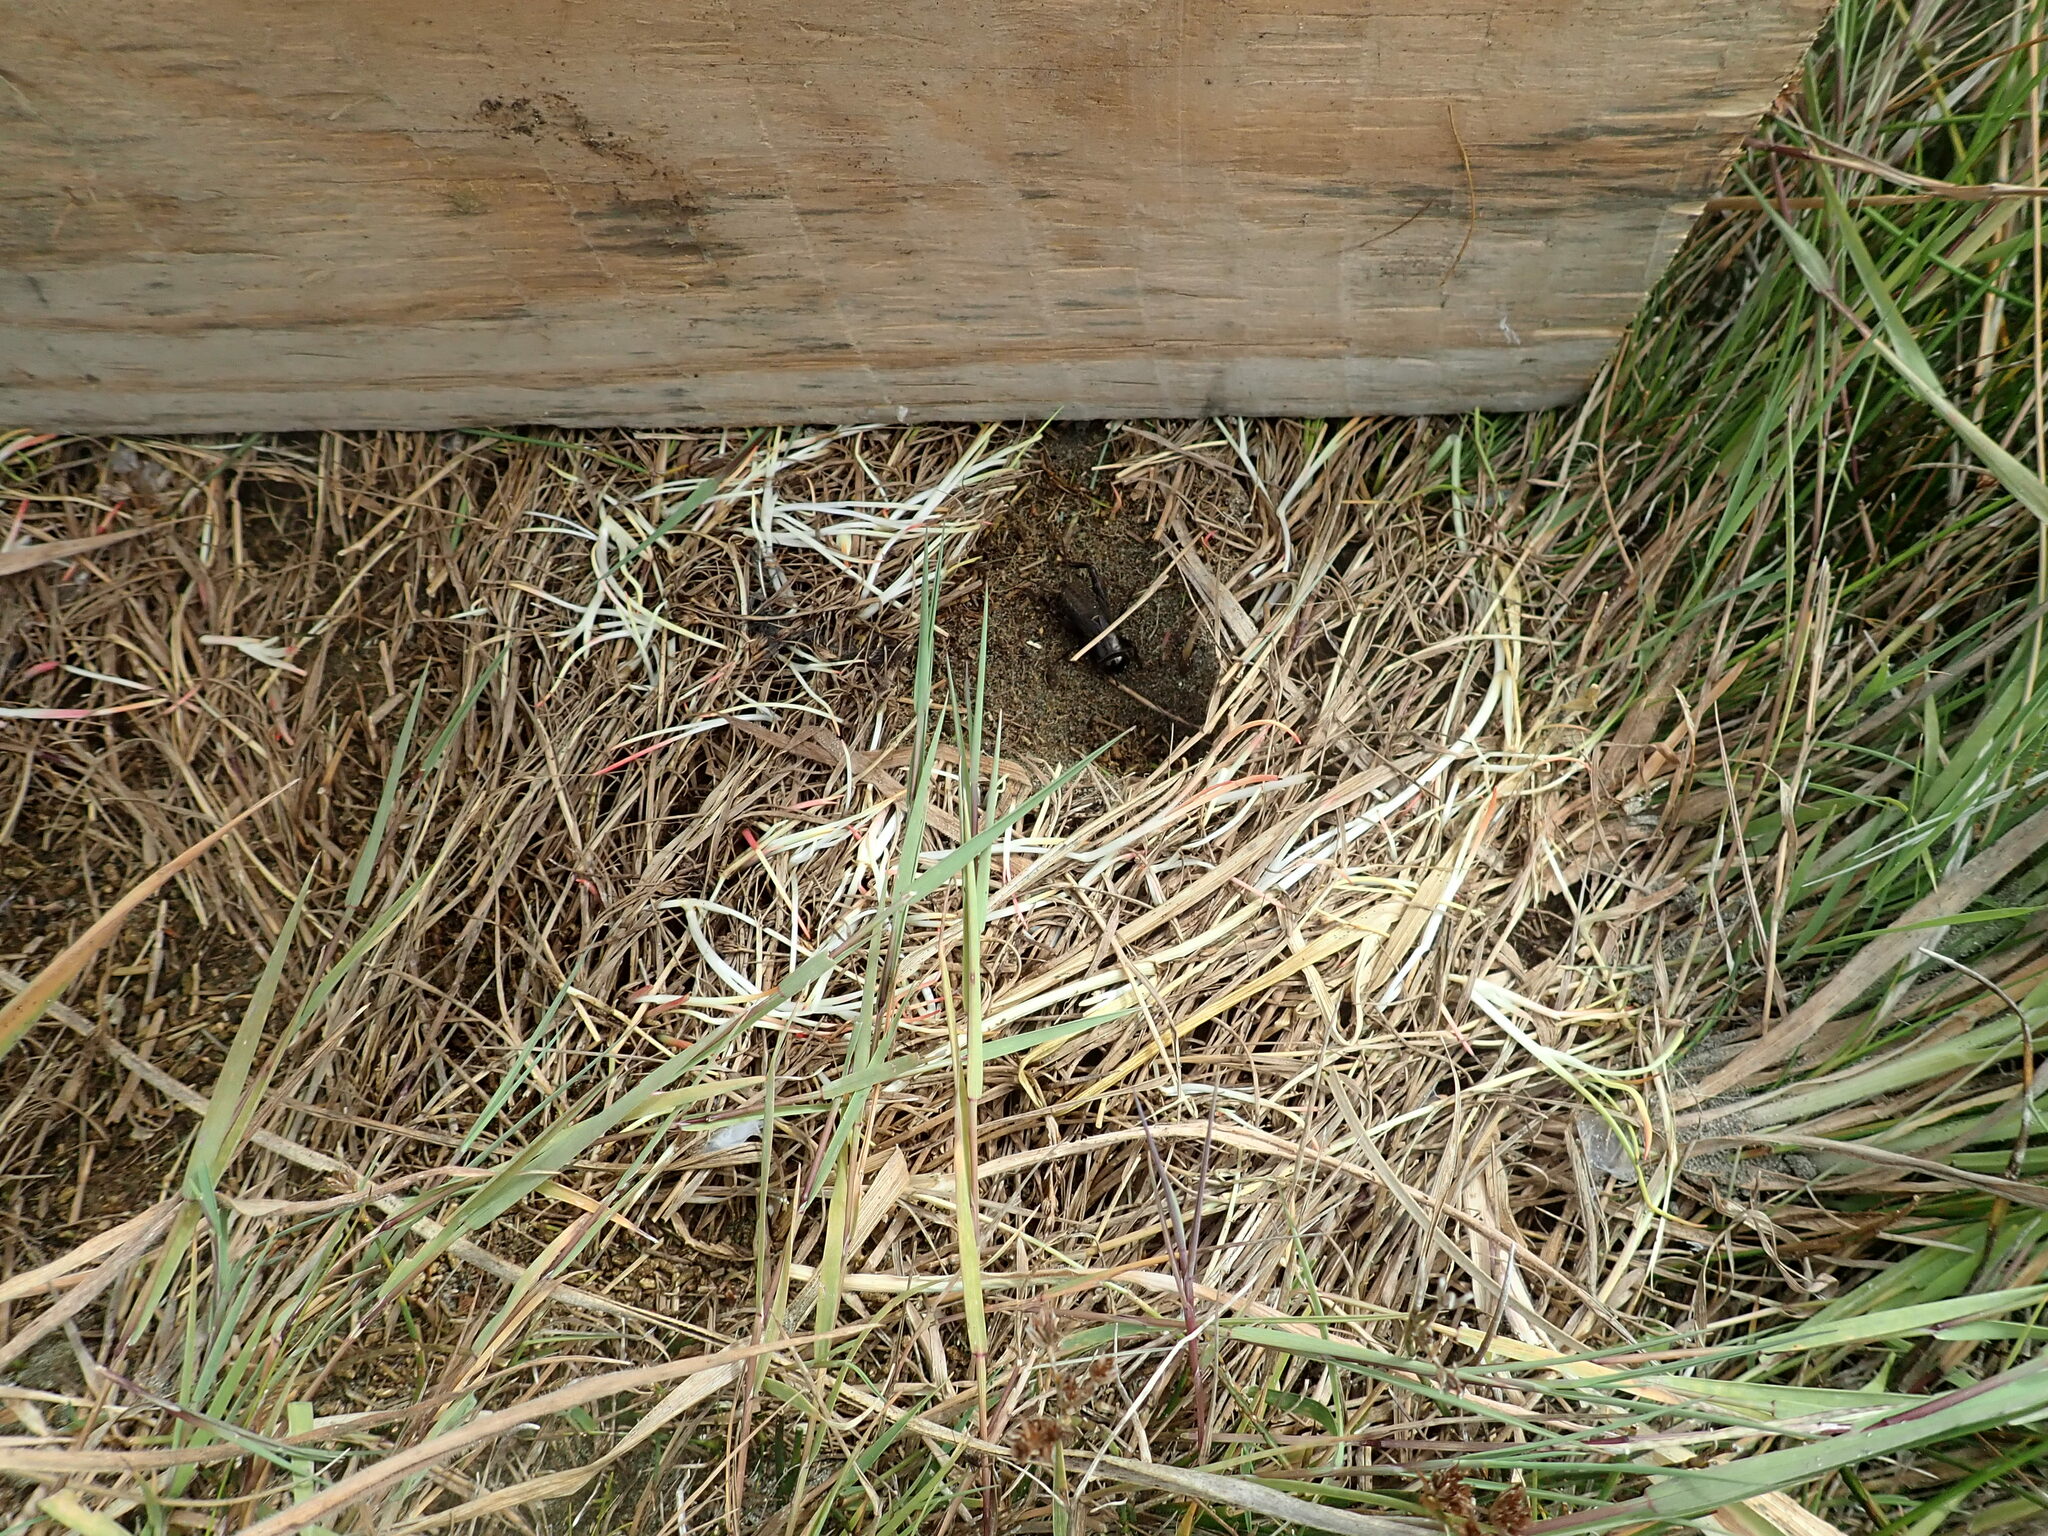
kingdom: Animalia
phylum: Arthropoda
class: Insecta
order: Orthoptera
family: Gryllidae
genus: Teleogryllus
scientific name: Teleogryllus commodus
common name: Black field cricket
